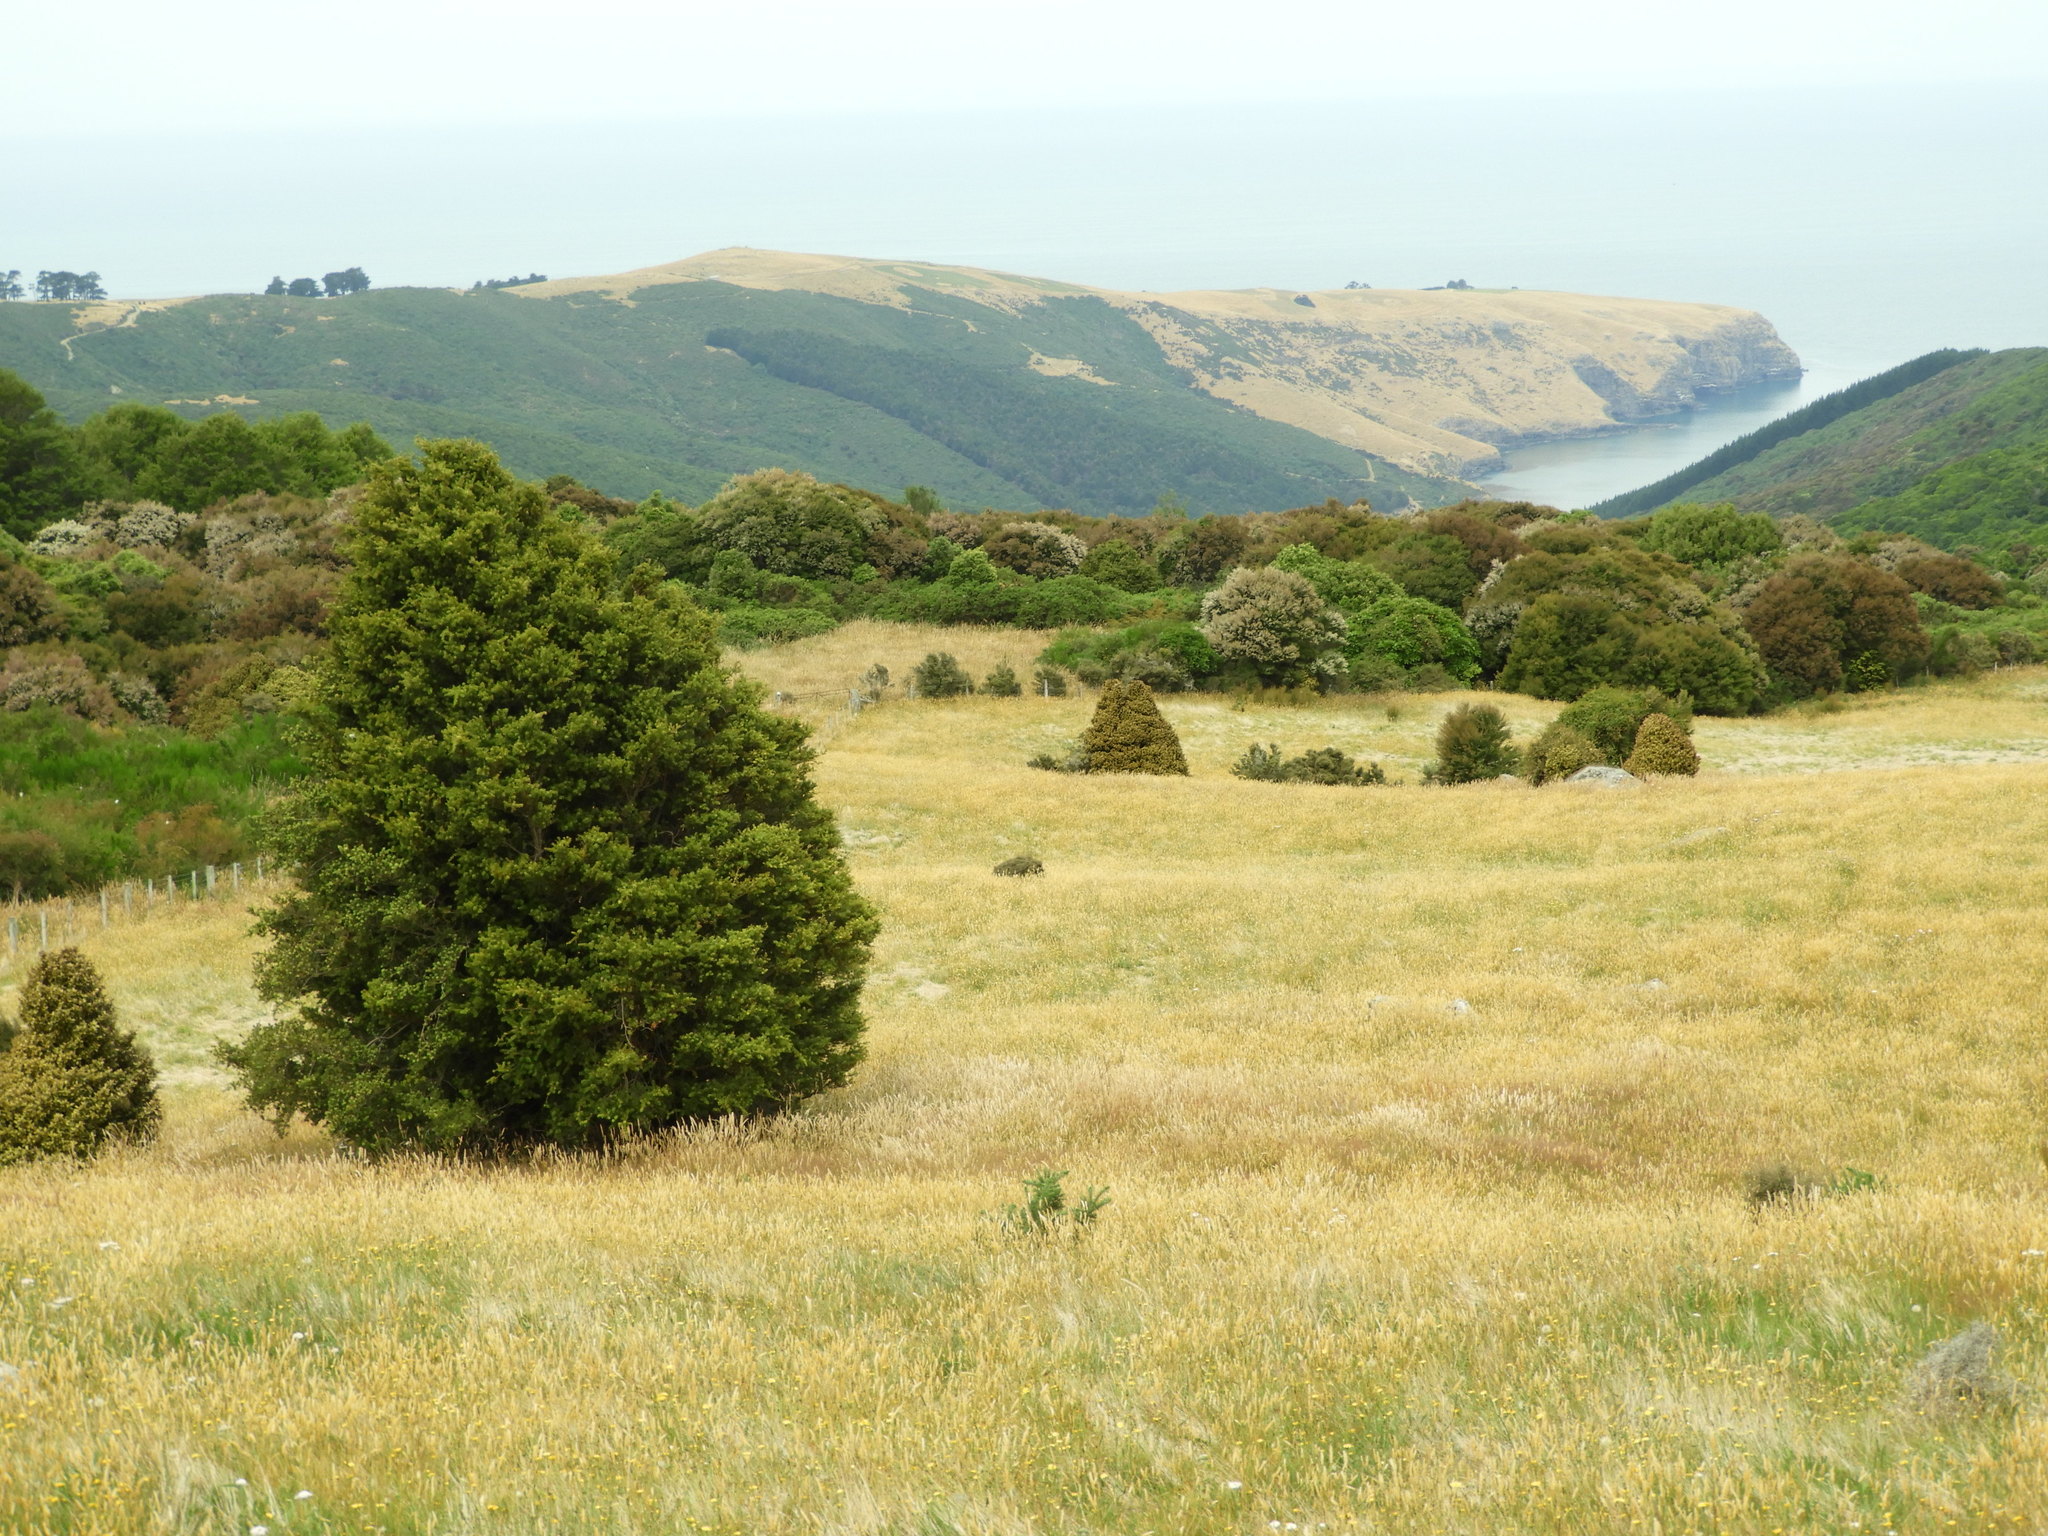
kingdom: Plantae
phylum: Tracheophyta
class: Pinopsida
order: Pinales
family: Podocarpaceae
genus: Podocarpus
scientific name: Podocarpus totara
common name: Totara
